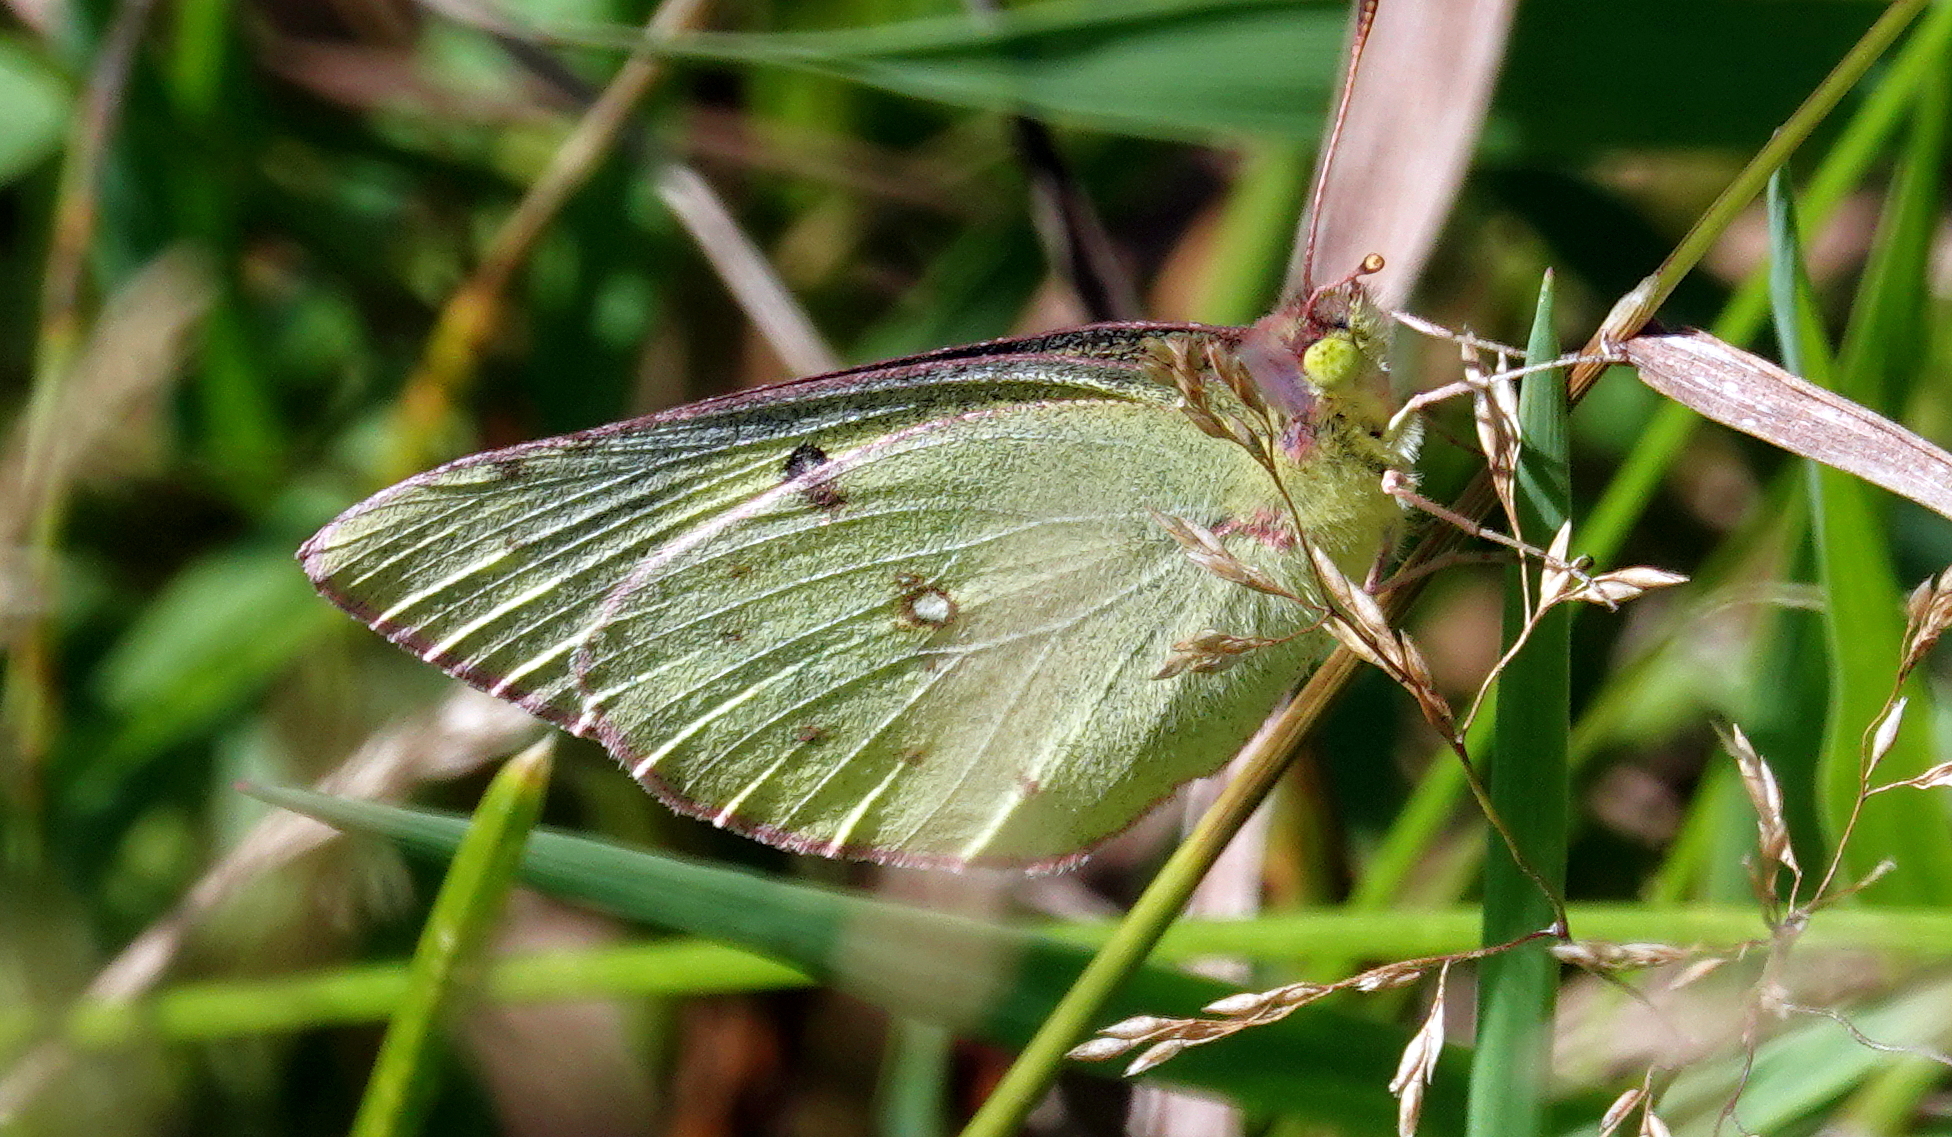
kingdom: Animalia
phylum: Arthropoda
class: Insecta
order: Lepidoptera
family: Pieridae
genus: Colias
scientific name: Colias philodice
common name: Clouded sulphur
